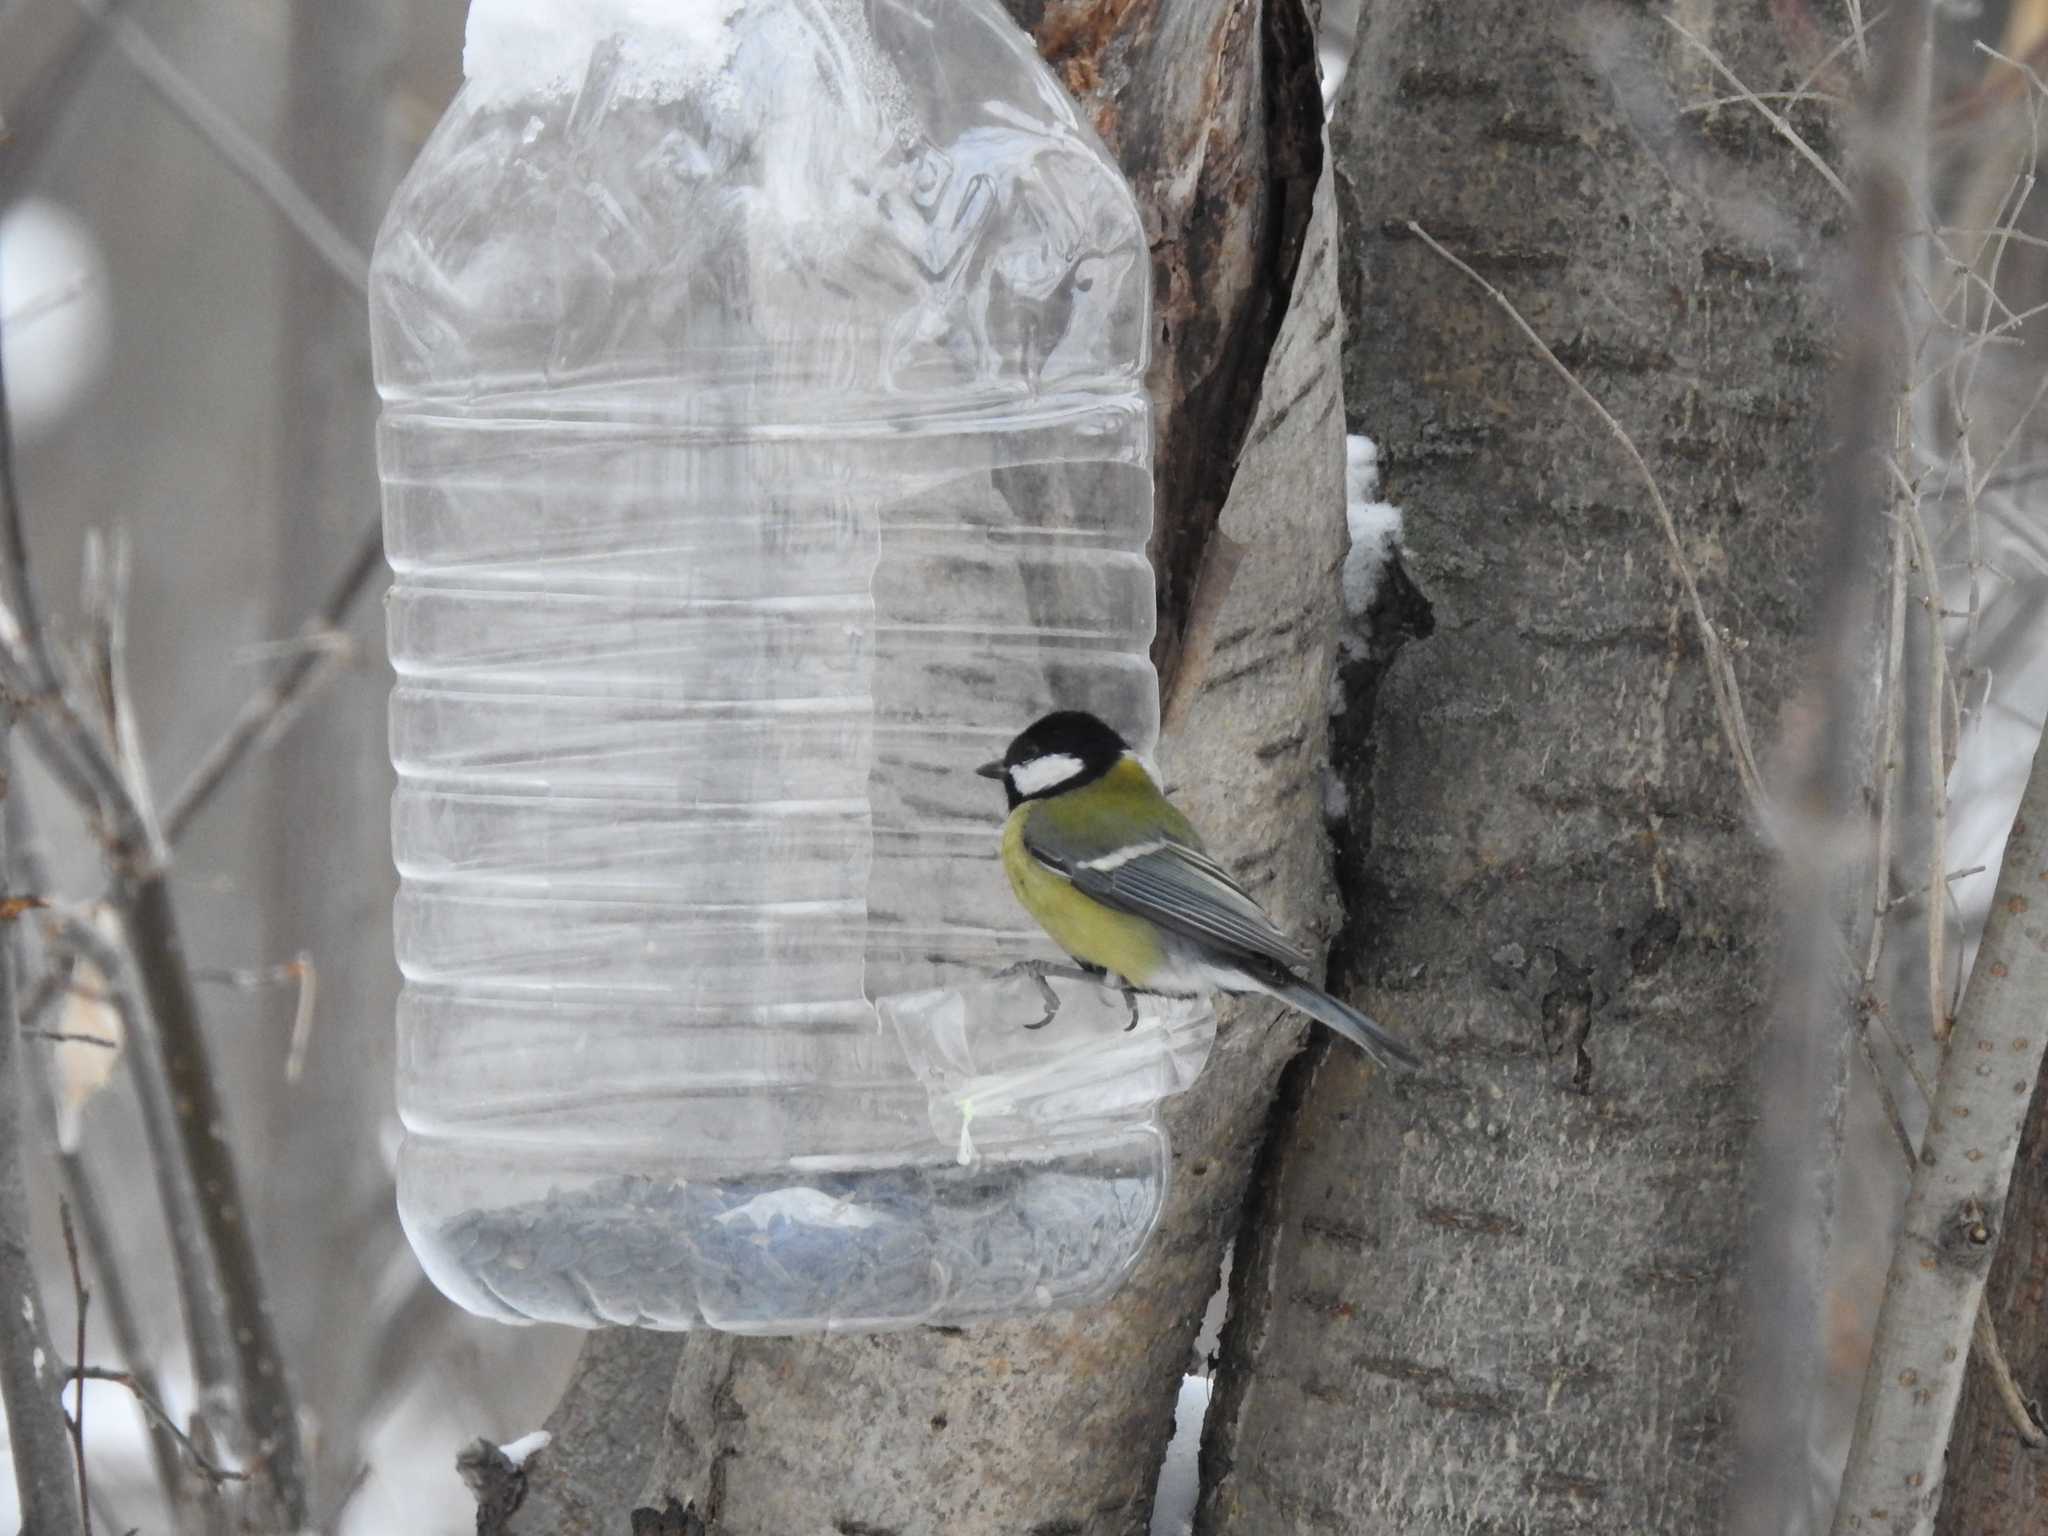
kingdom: Animalia
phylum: Chordata
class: Aves
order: Passeriformes
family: Paridae
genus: Parus
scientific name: Parus major
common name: Great tit
